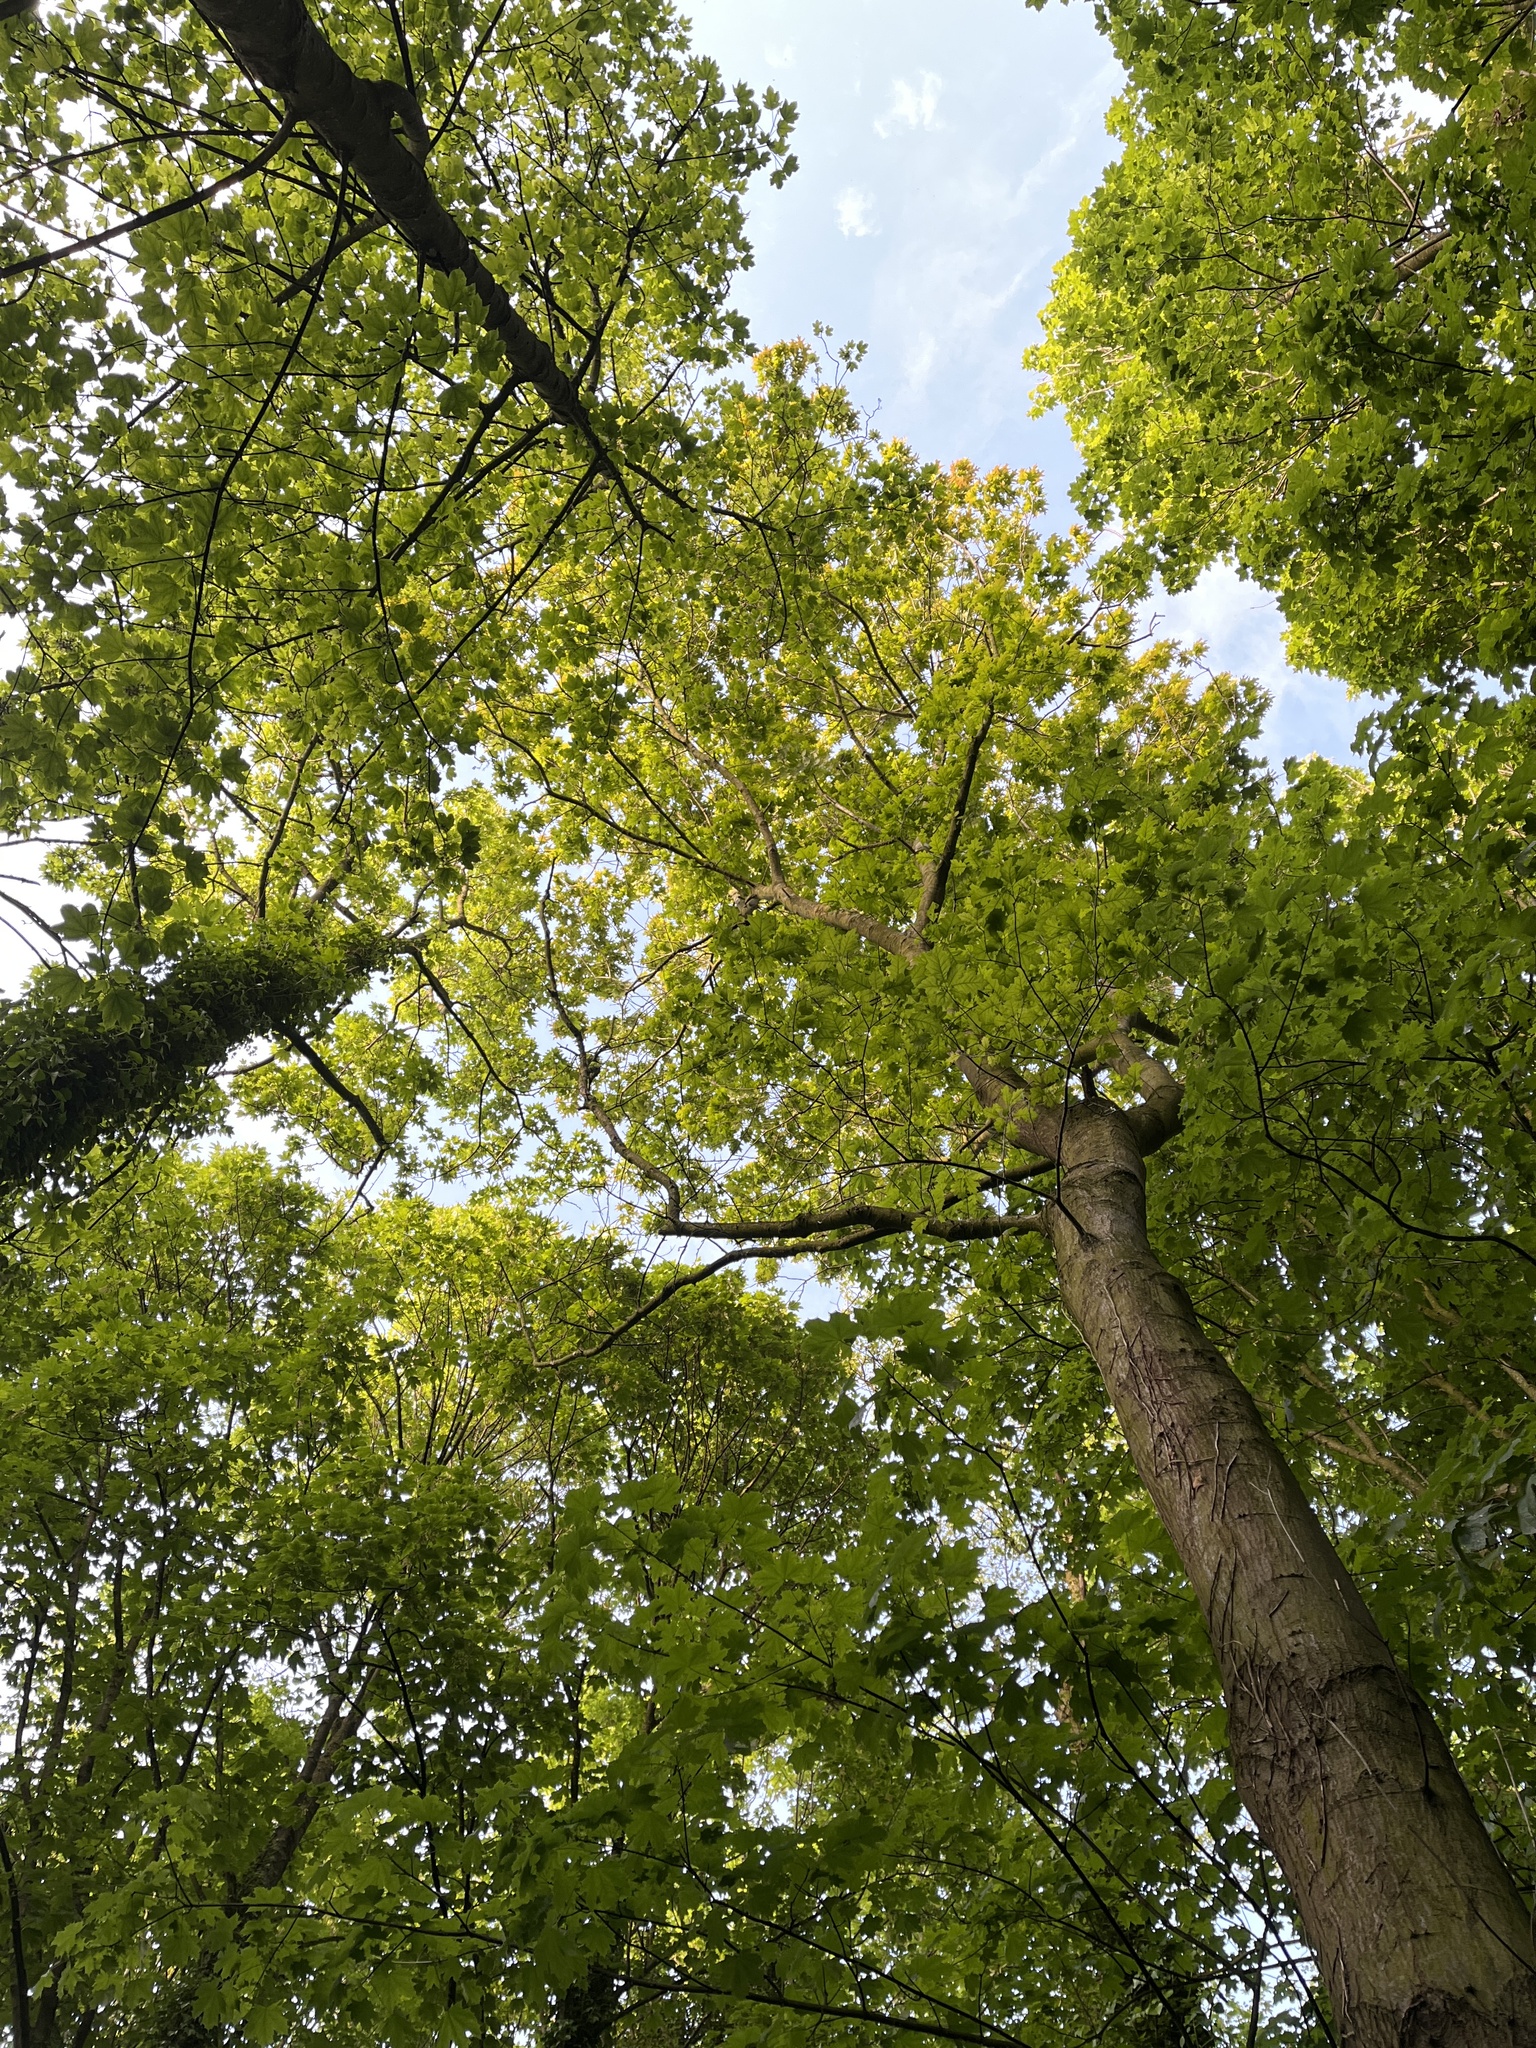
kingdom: Plantae
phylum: Tracheophyta
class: Magnoliopsida
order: Fagales
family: Fagaceae
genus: Quercus
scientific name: Quercus rubra
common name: Red oak
